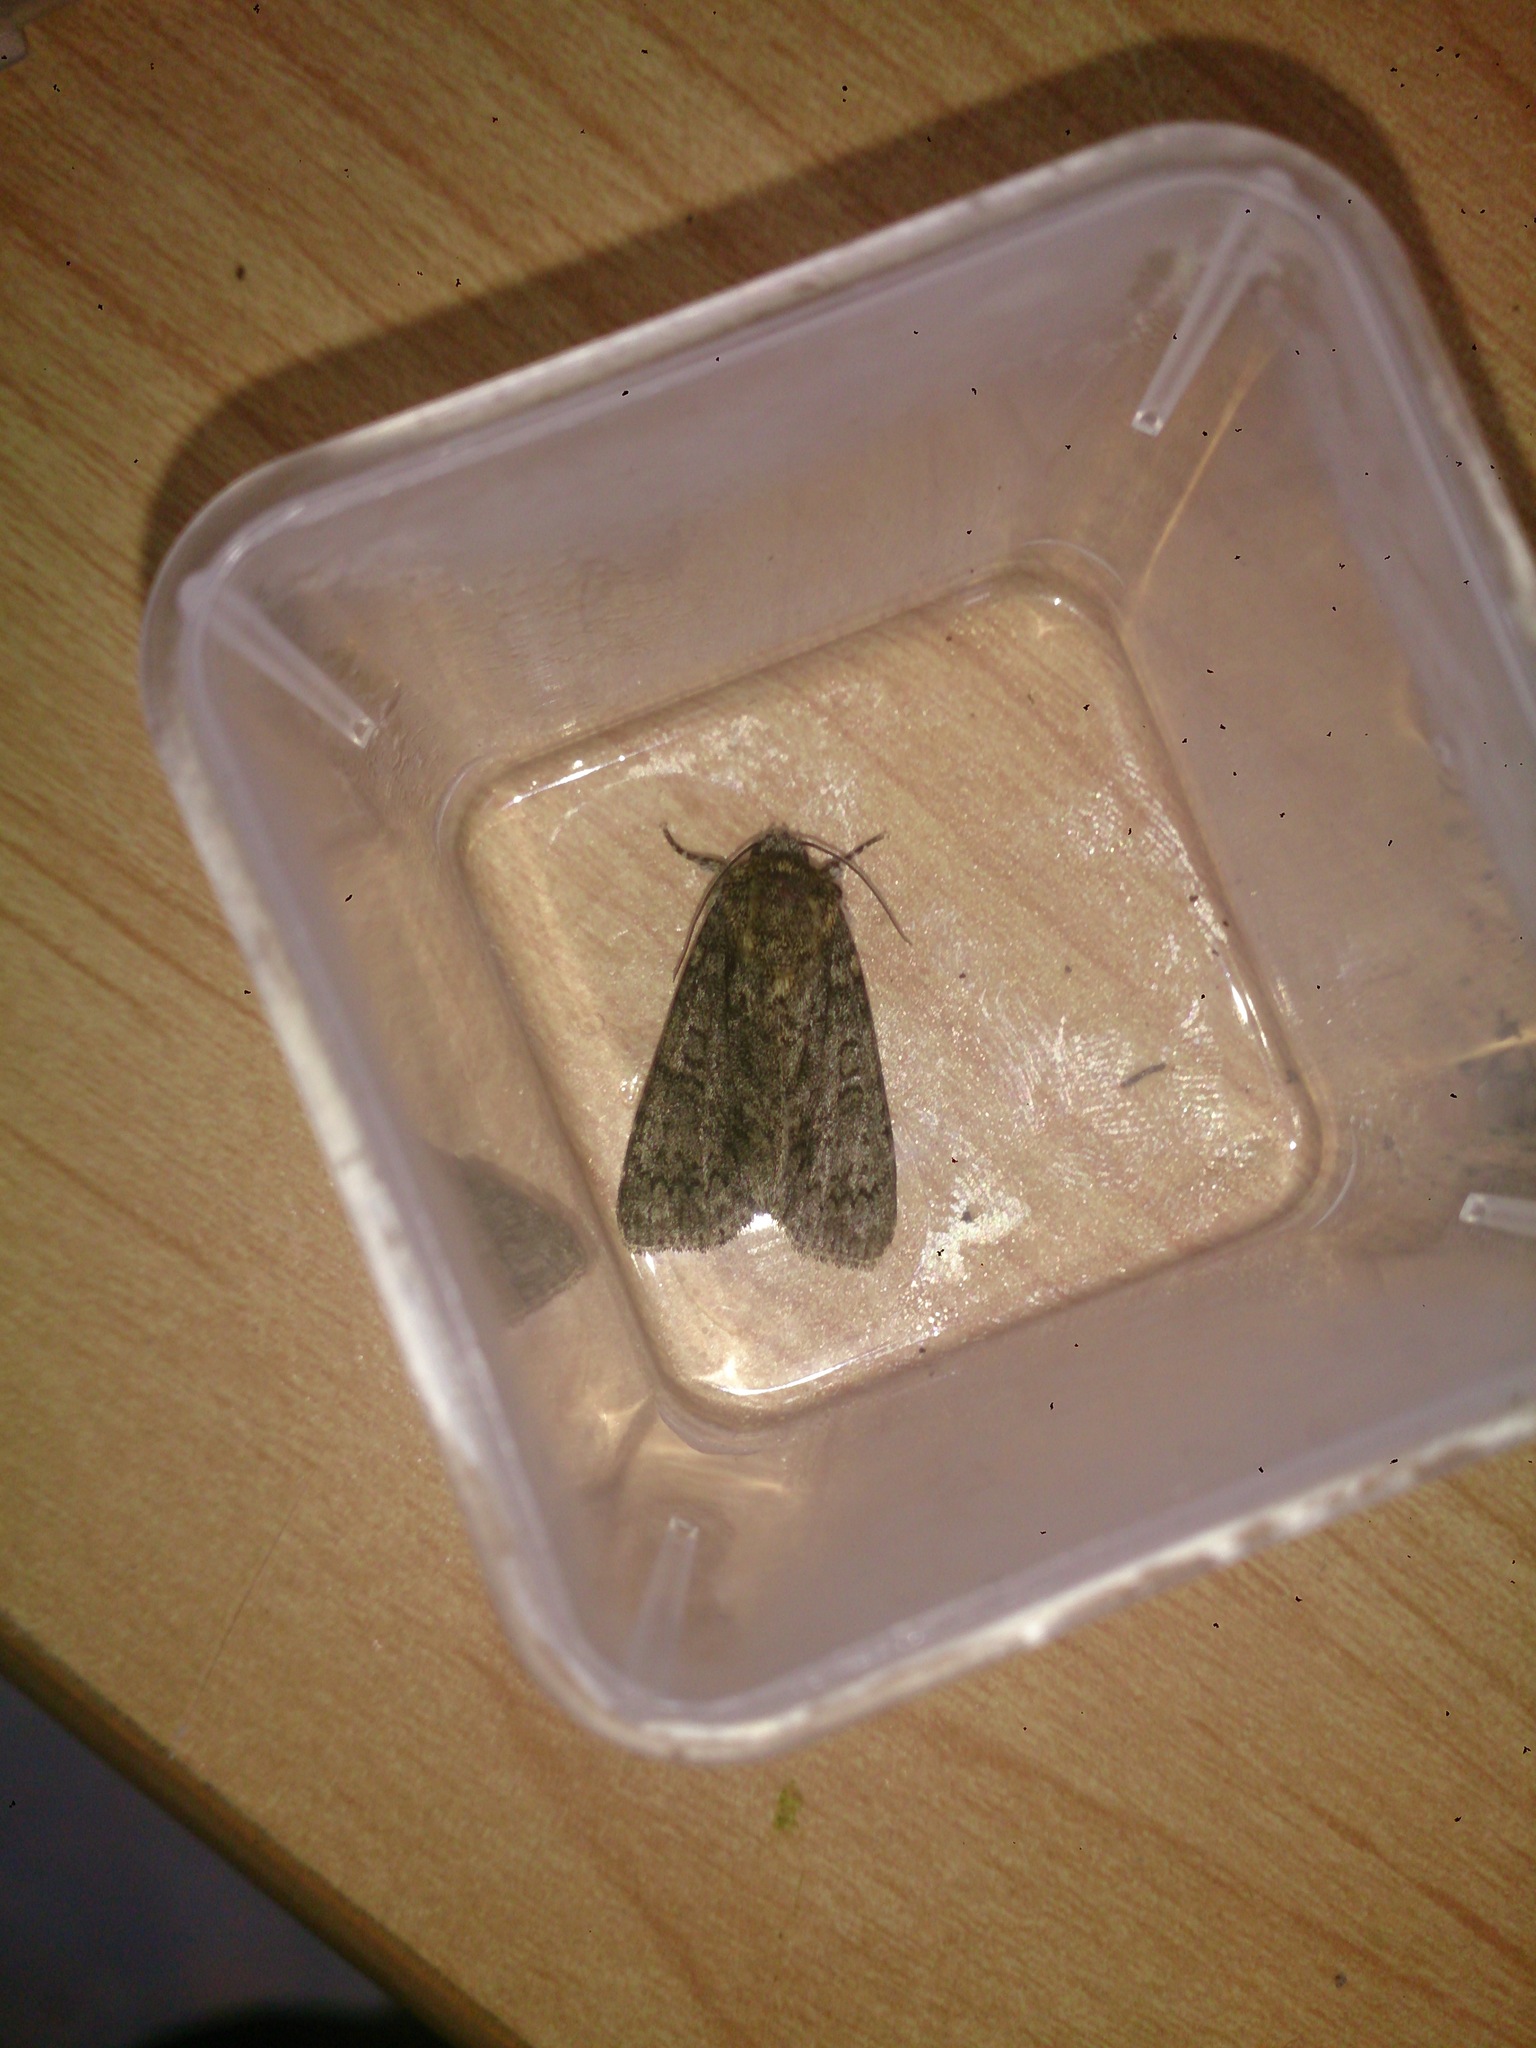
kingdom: Animalia
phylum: Arthropoda
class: Insecta
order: Lepidoptera
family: Noctuidae
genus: Acronicta
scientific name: Acronicta rumicis
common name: Knot grass
